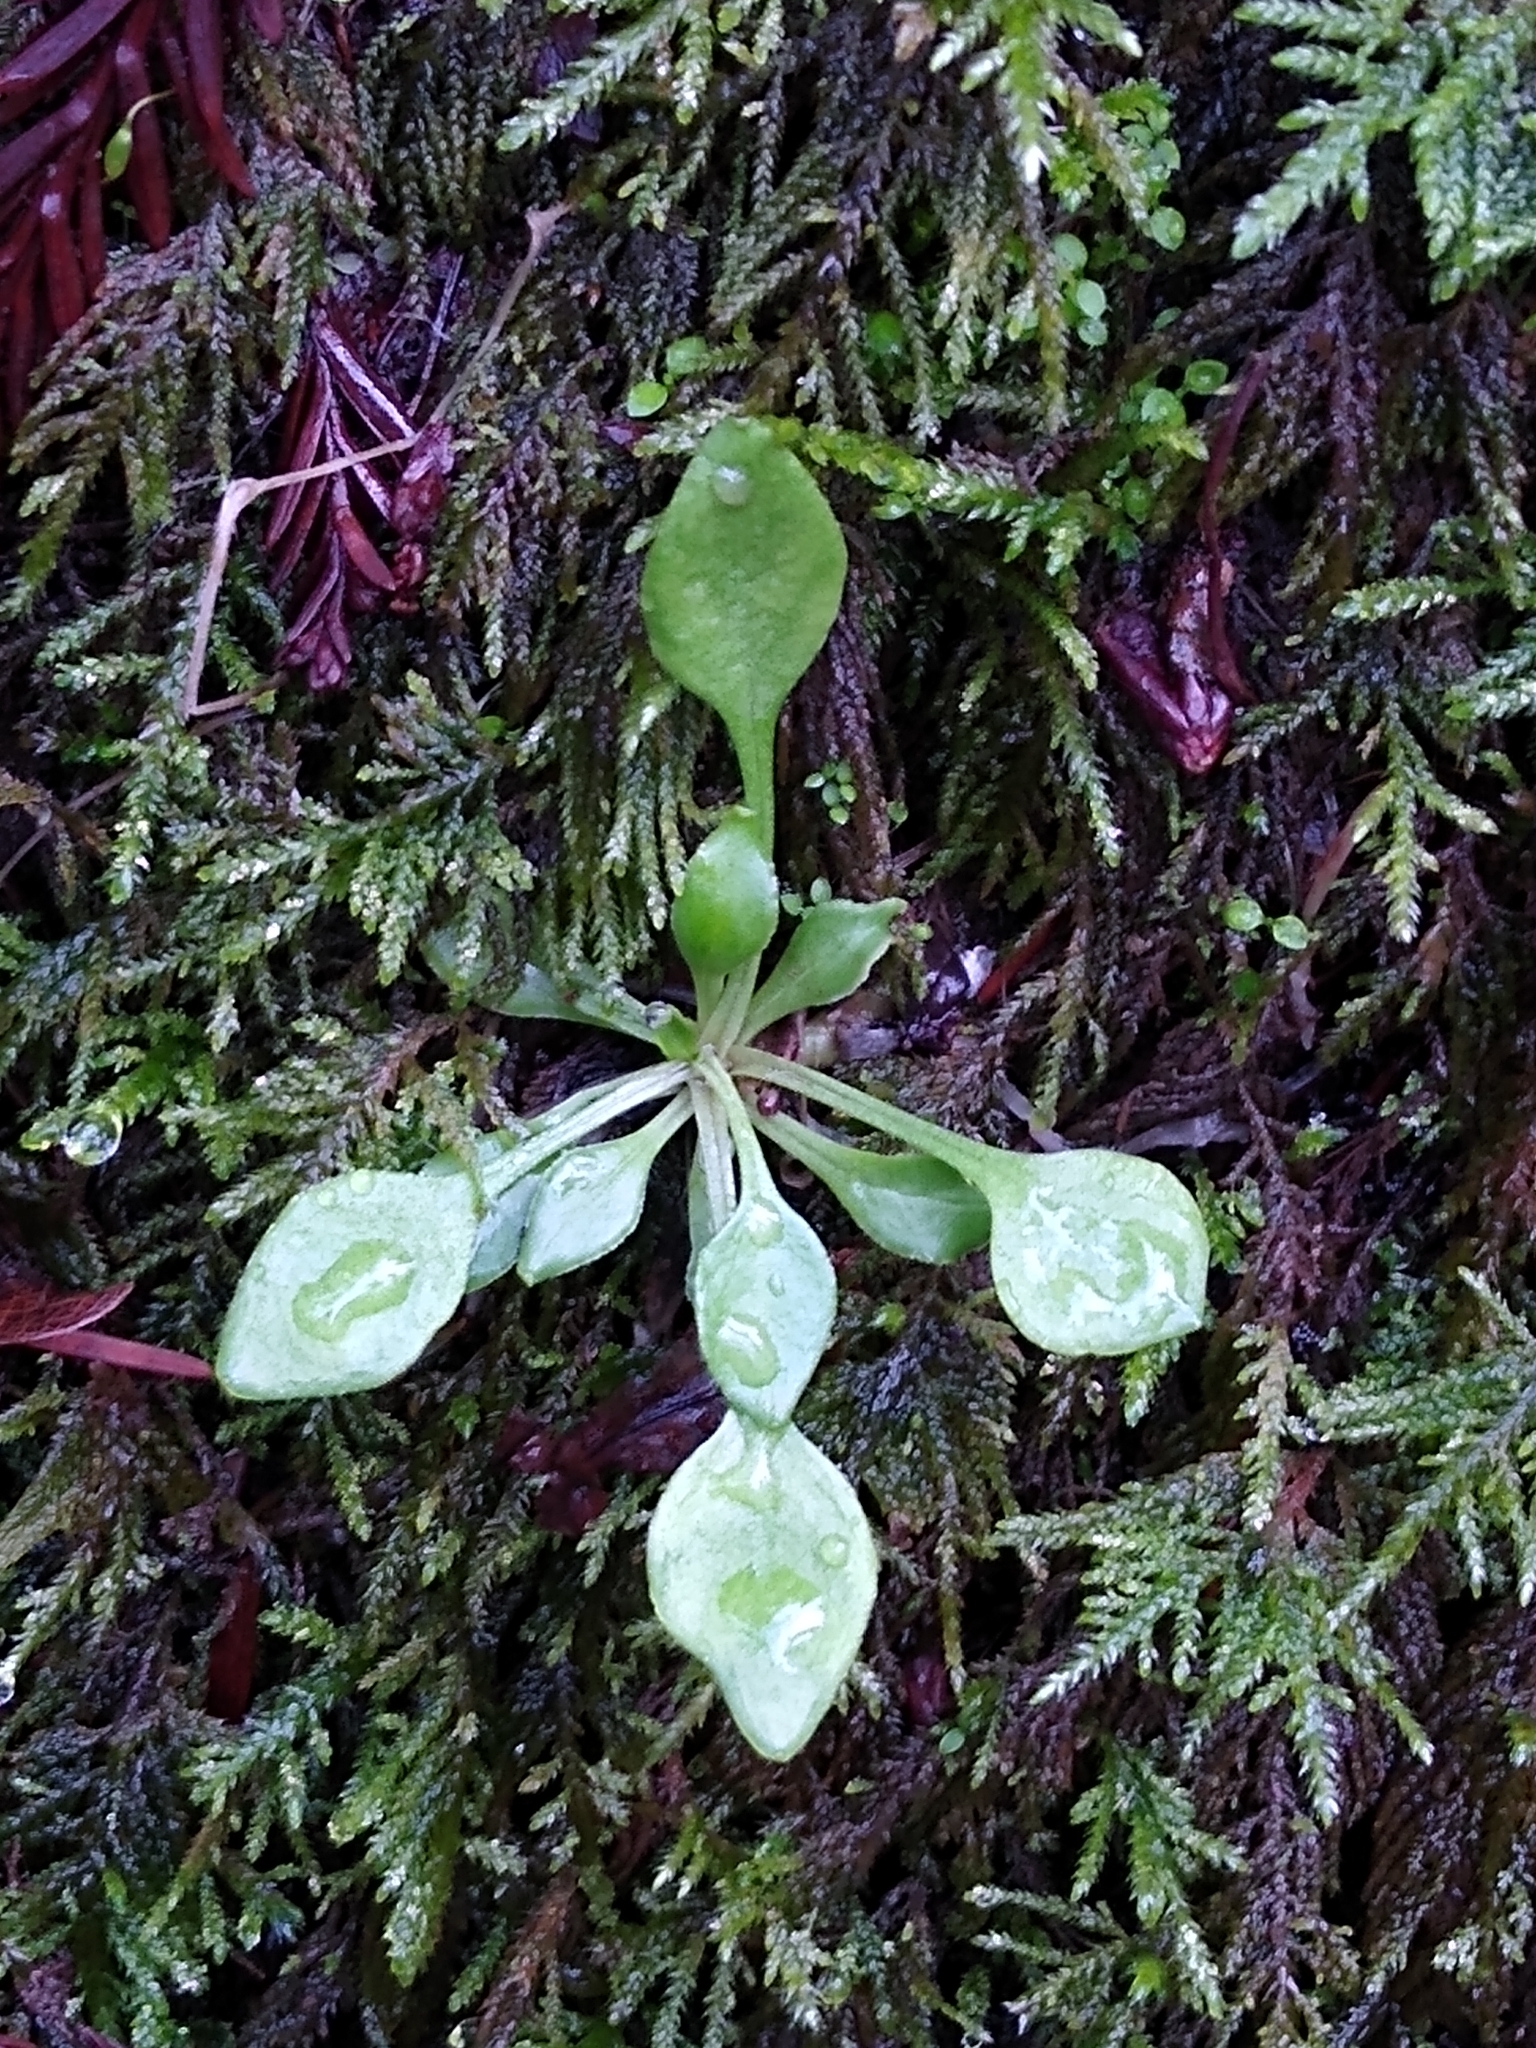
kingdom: Plantae
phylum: Tracheophyta
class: Magnoliopsida
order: Caryophyllales
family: Montiaceae
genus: Montia
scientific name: Montia parvifolia
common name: Small-leaved blinks
